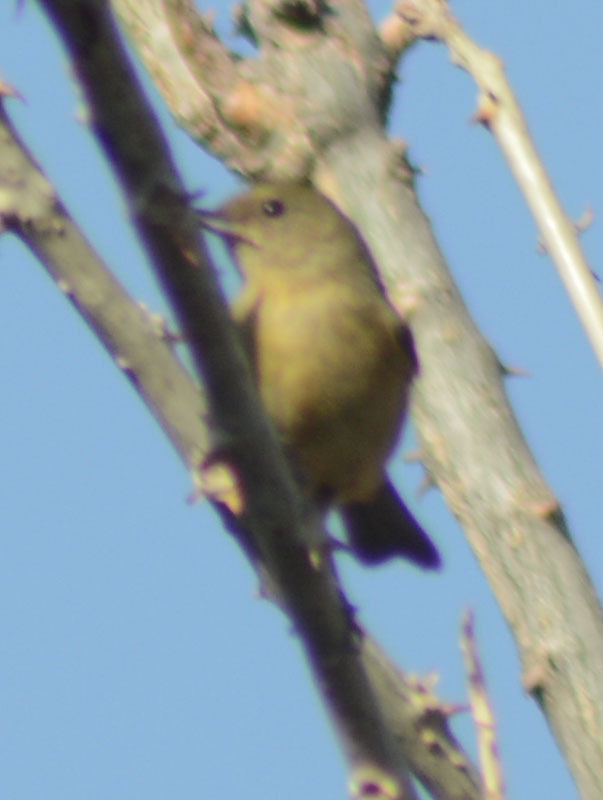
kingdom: Animalia
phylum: Chordata
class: Aves
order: Passeriformes
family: Thraupidae
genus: Diglossa
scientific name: Diglossa baritula
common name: Cinnamon-bellied flowerpiercer
